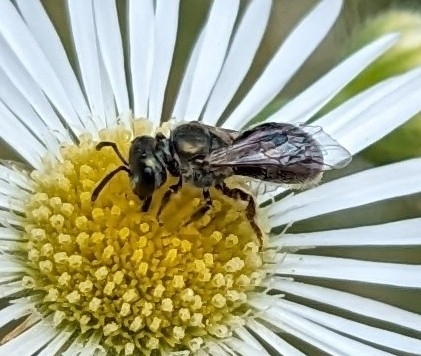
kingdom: Animalia
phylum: Arthropoda
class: Insecta
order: Hymenoptera
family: Halictidae
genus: Dialictus
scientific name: Dialictus
